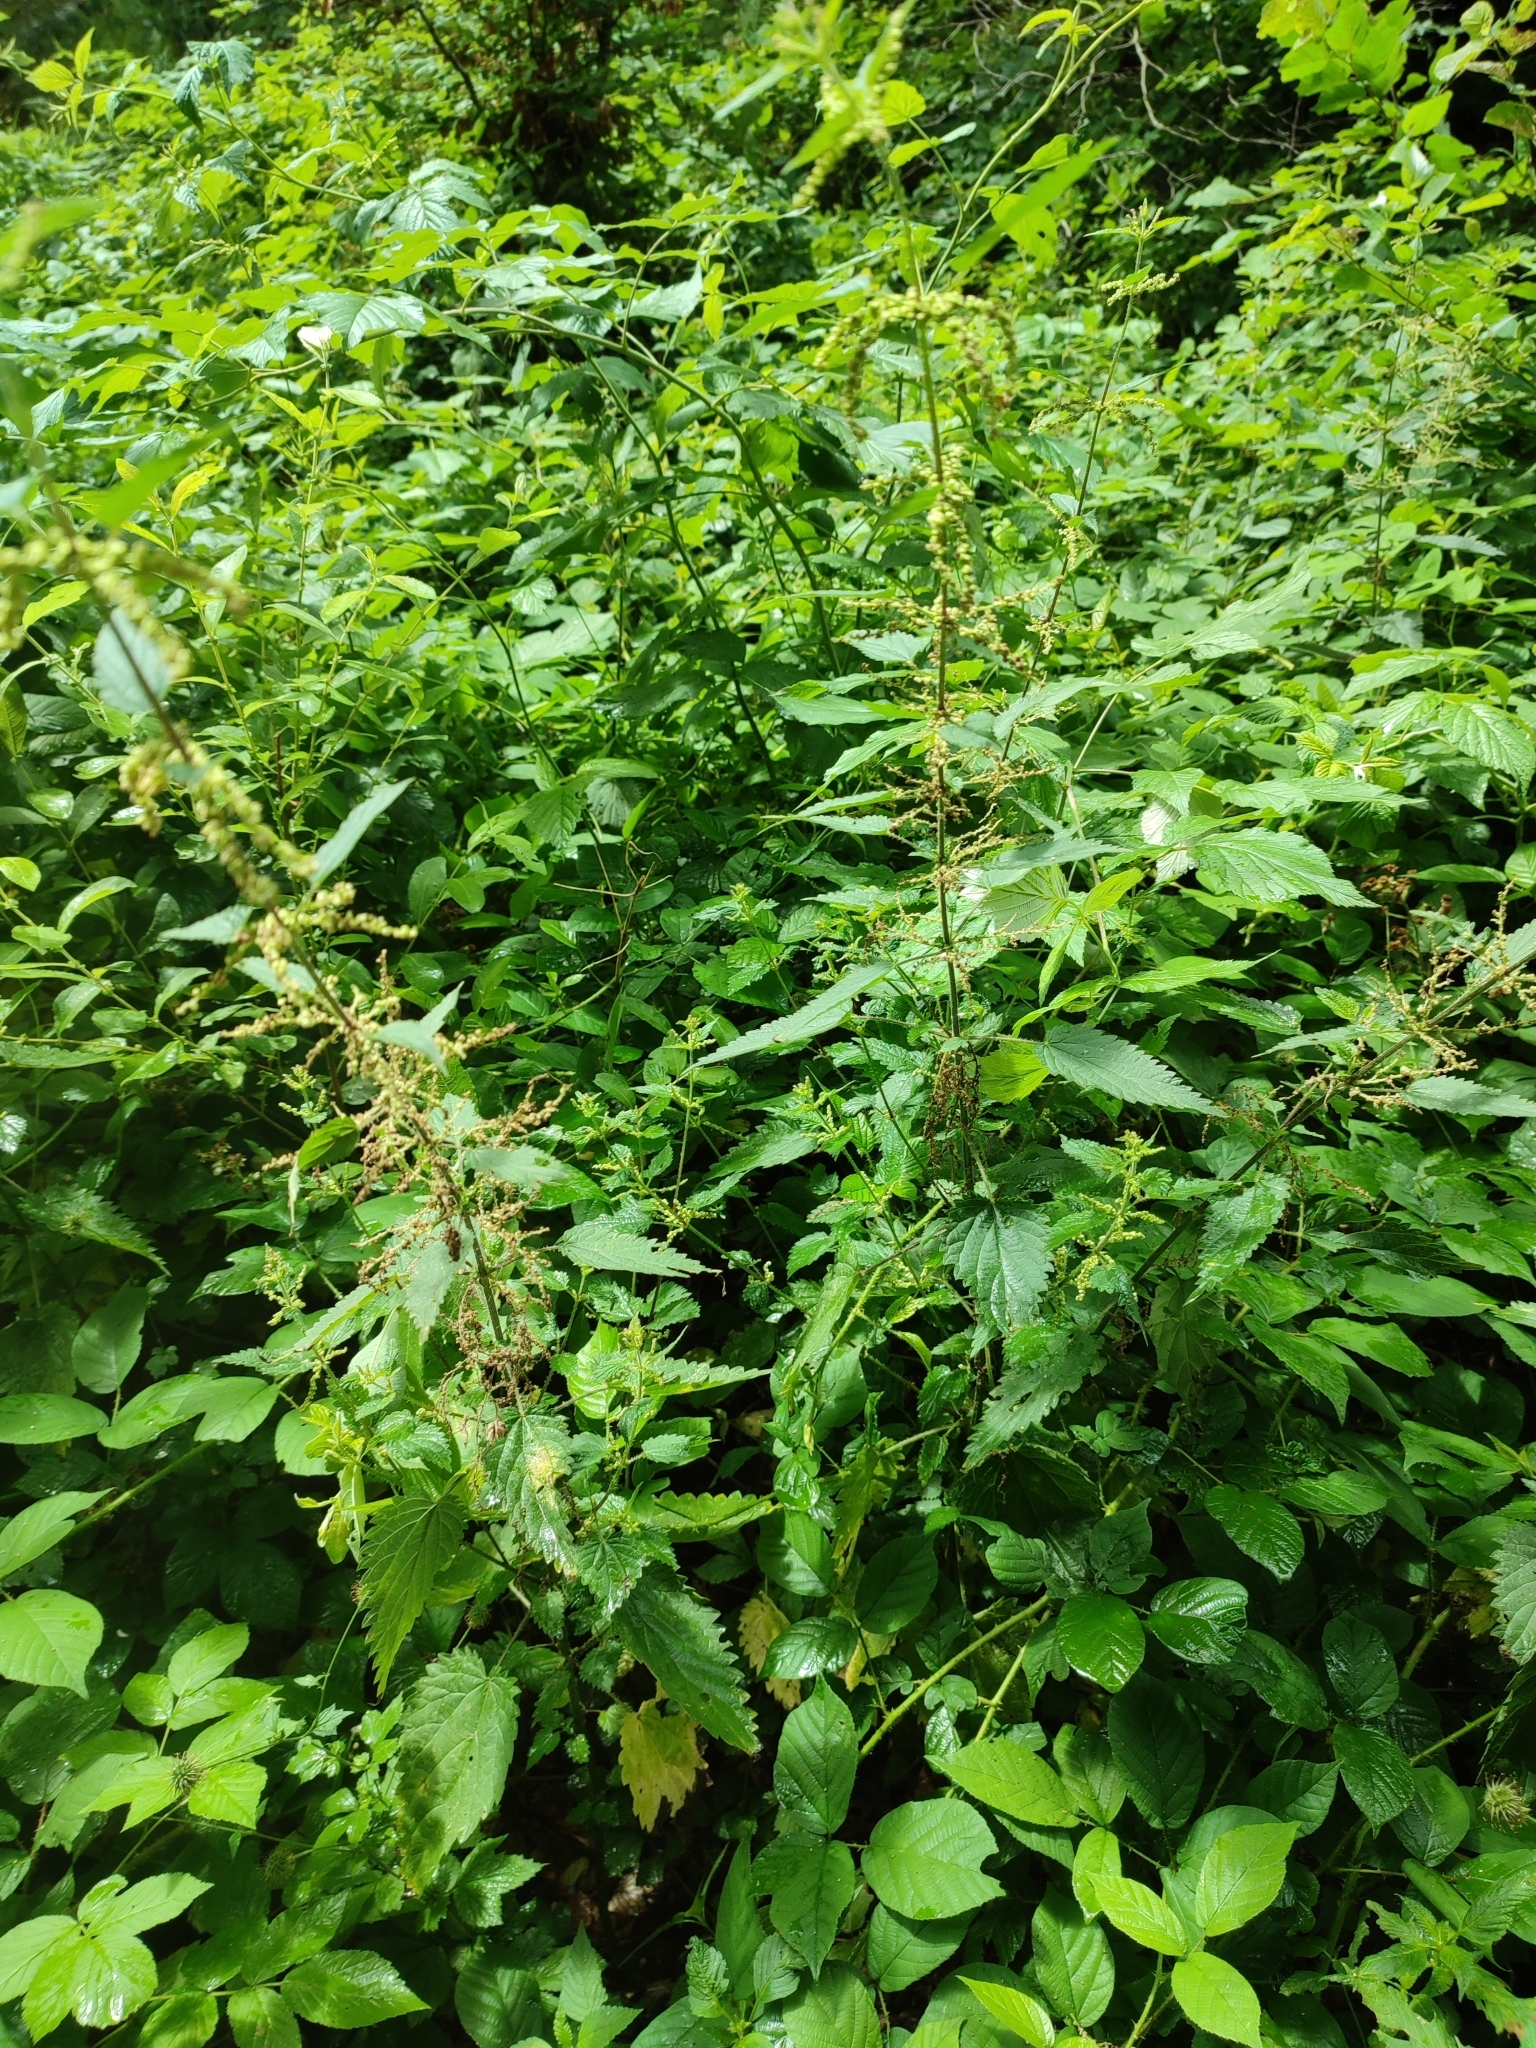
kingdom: Plantae
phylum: Tracheophyta
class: Magnoliopsida
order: Rosales
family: Urticaceae
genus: Urtica
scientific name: Urtica dioica
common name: Common nettle
